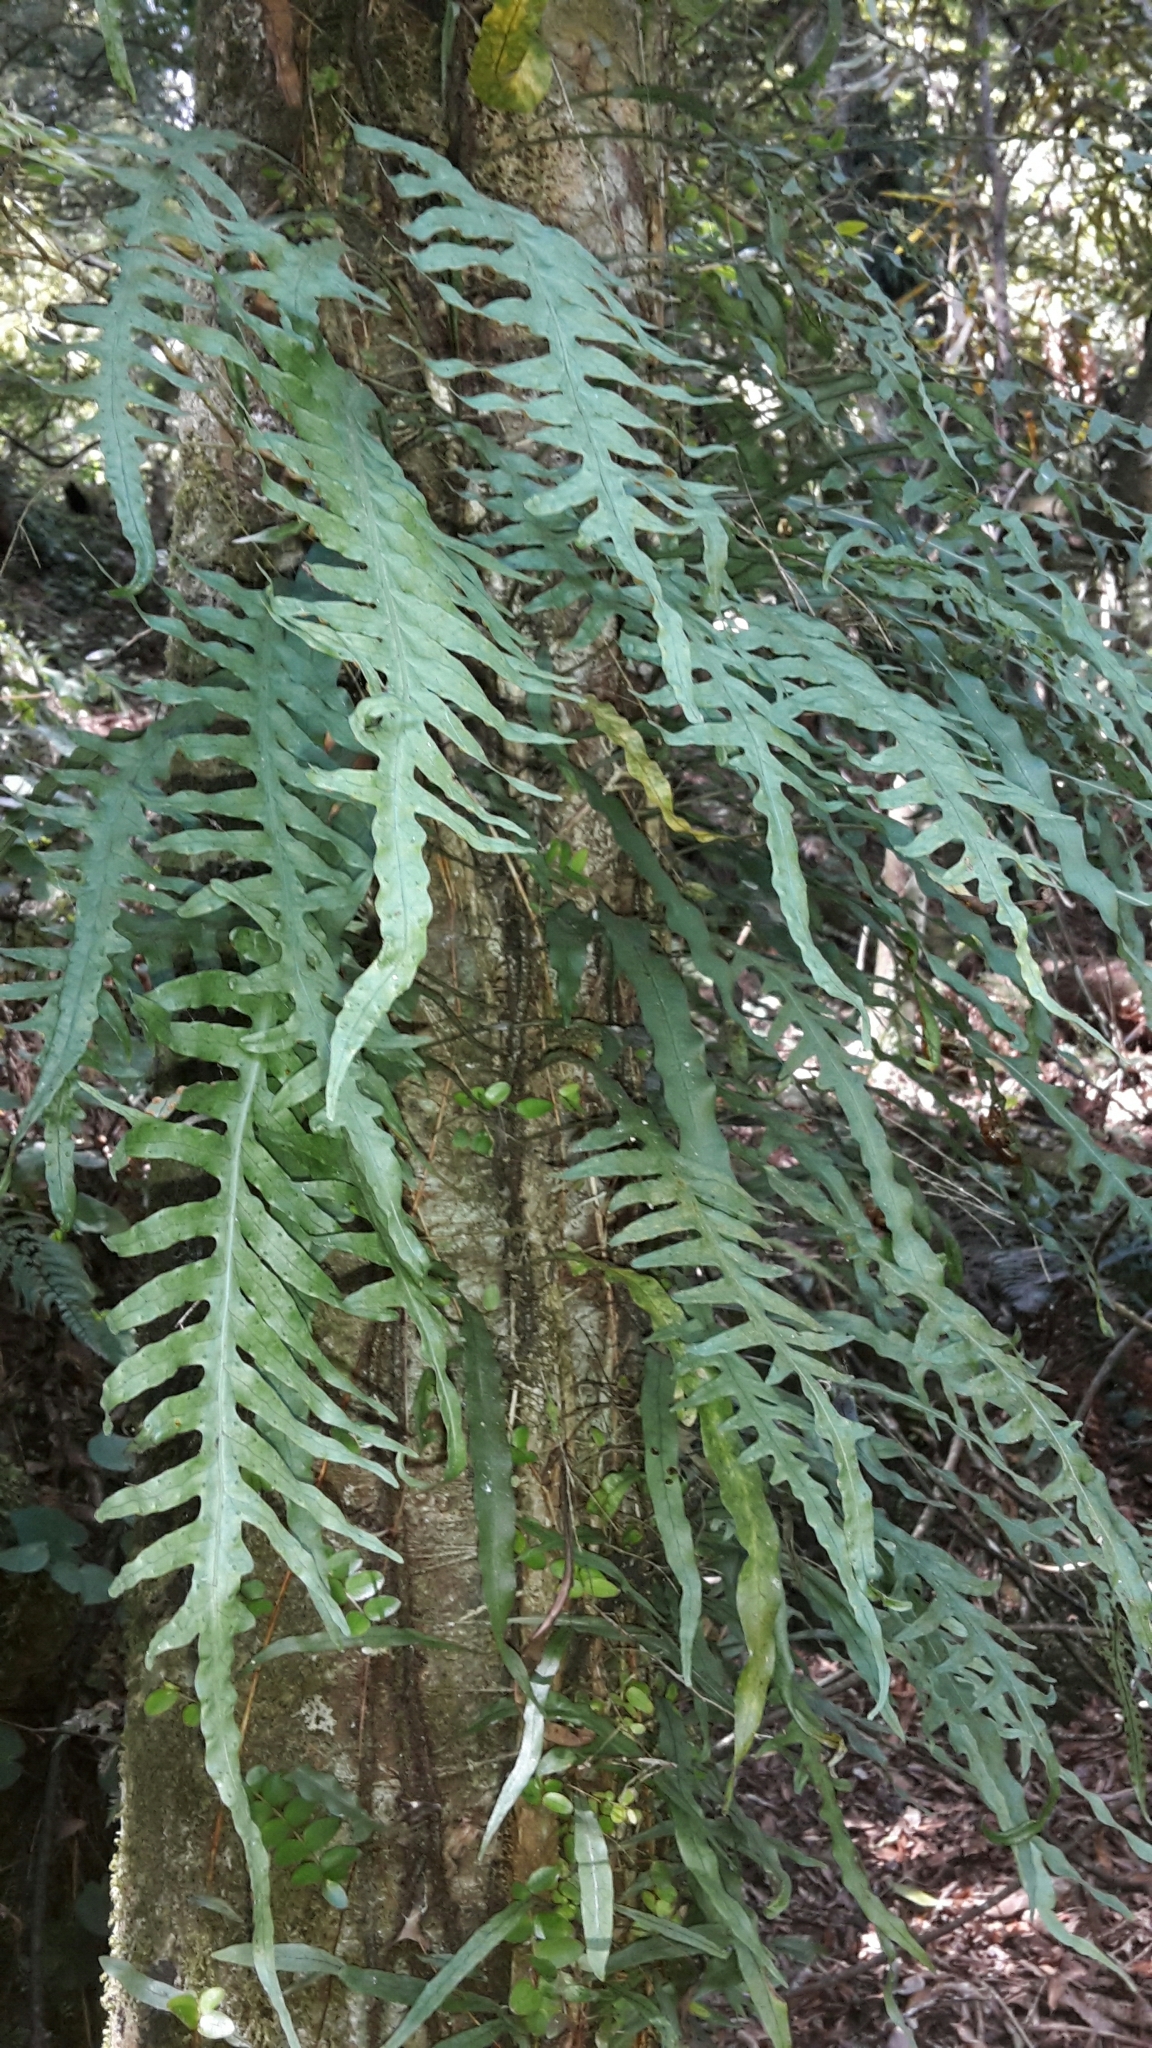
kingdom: Plantae
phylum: Tracheophyta
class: Polypodiopsida
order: Polypodiales
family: Polypodiaceae
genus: Lecanopteris
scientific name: Lecanopteris scandens
